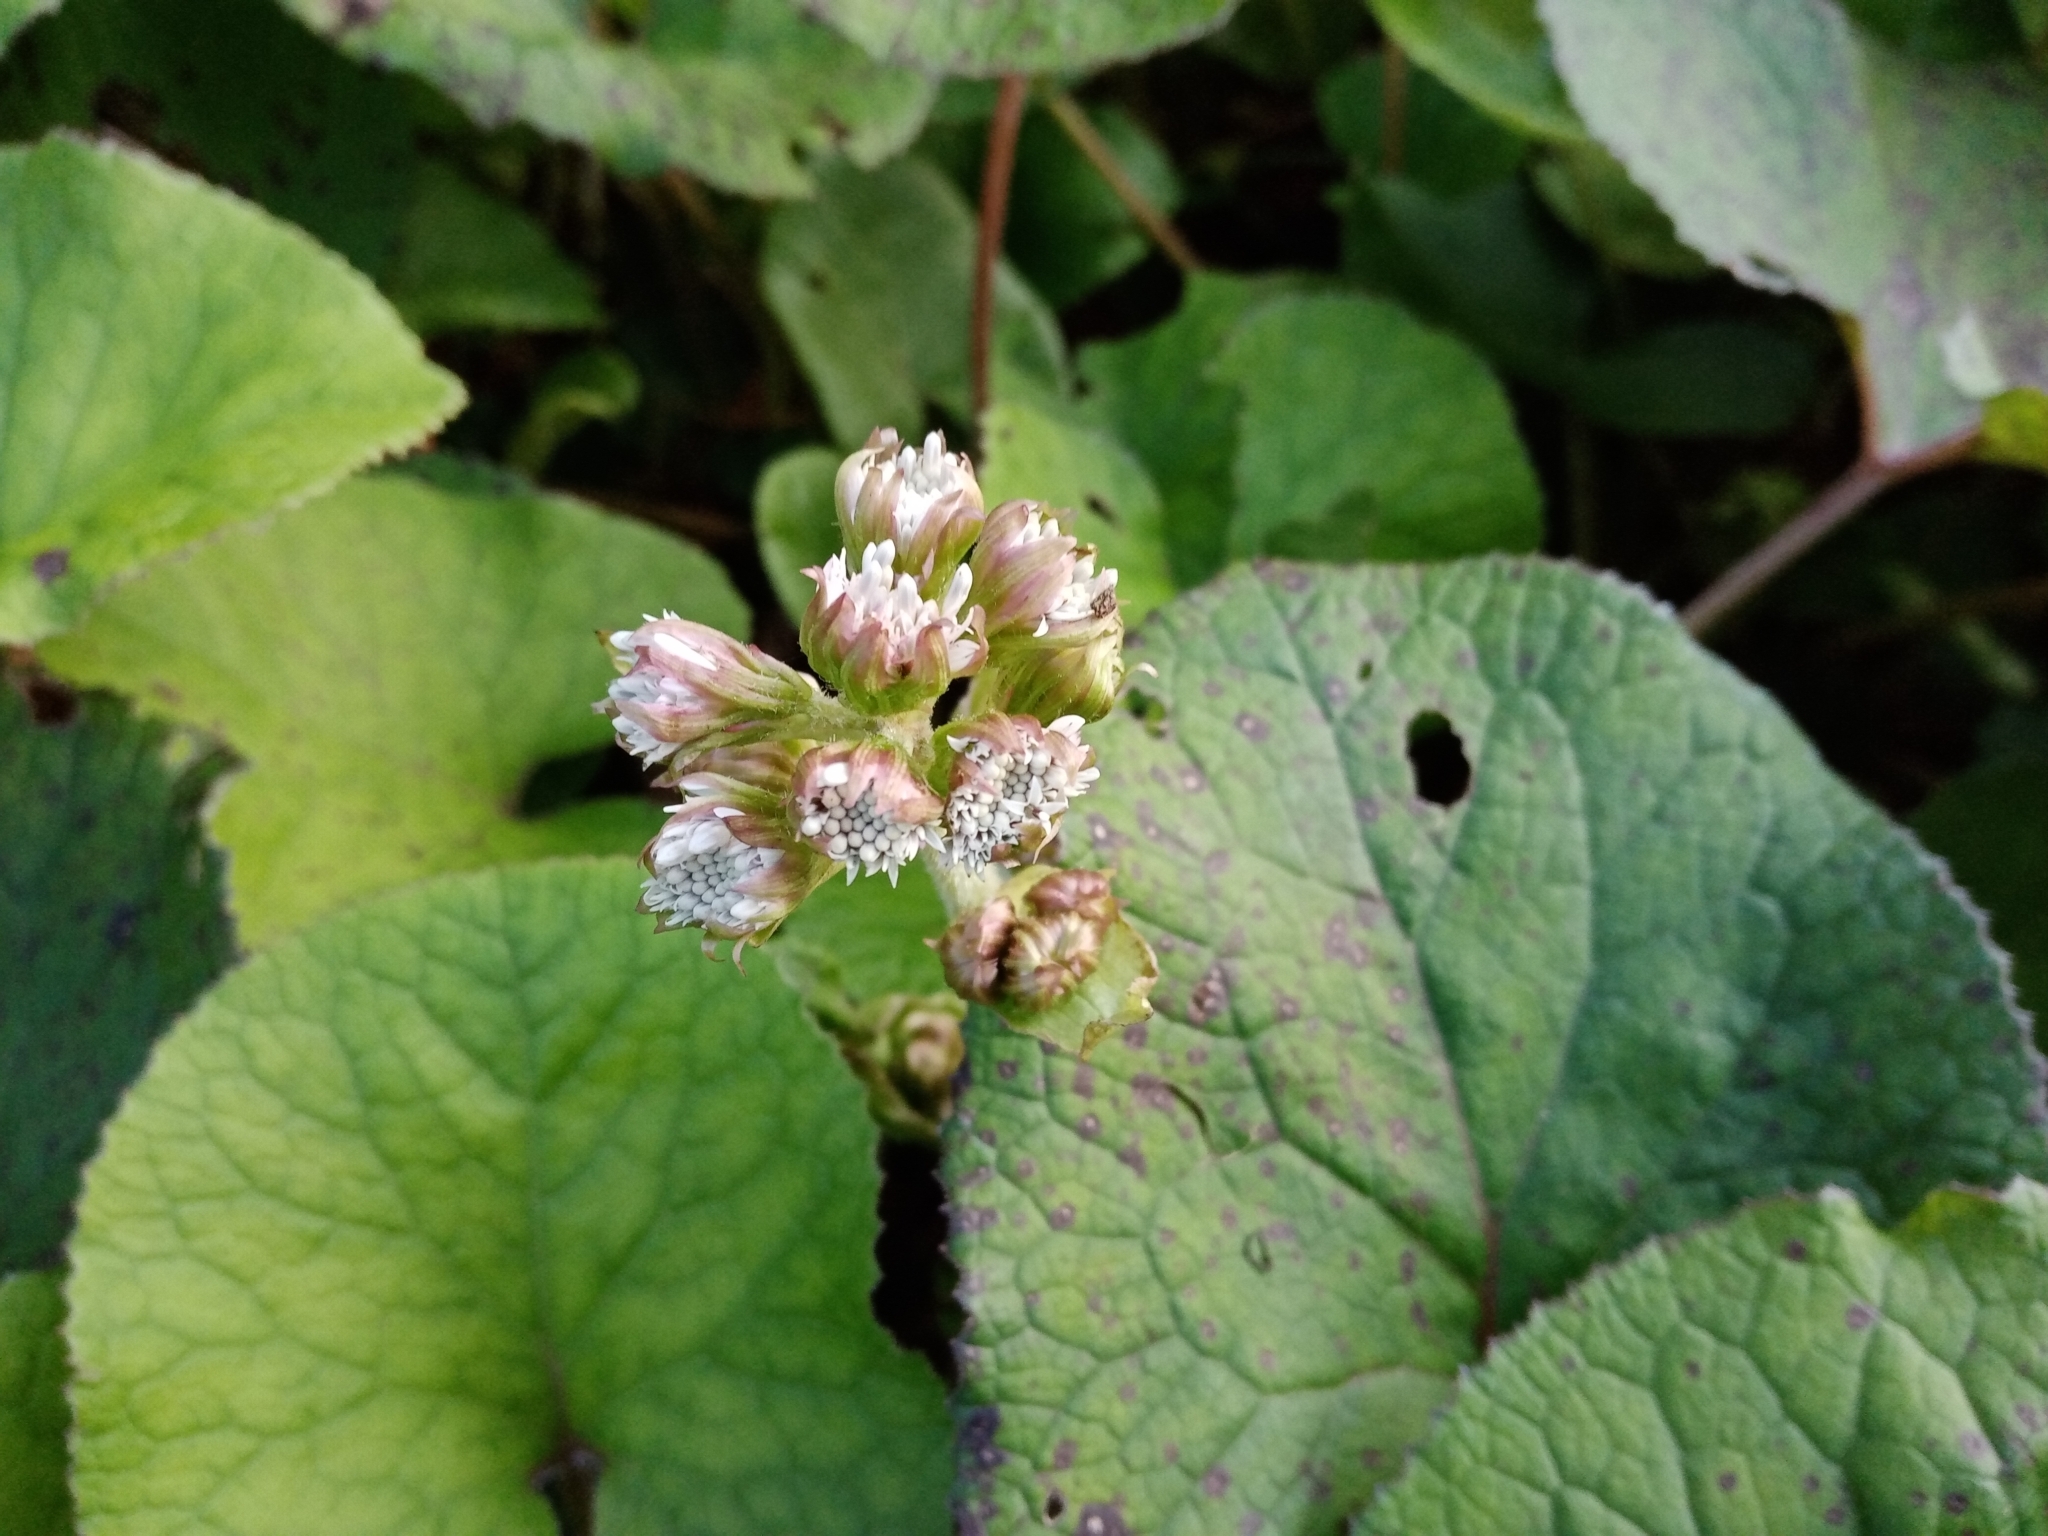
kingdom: Plantae
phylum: Tracheophyta
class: Magnoliopsida
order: Asterales
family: Asteraceae
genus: Petasites
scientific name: Petasites pyrenaicus
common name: Winter heliotrope
